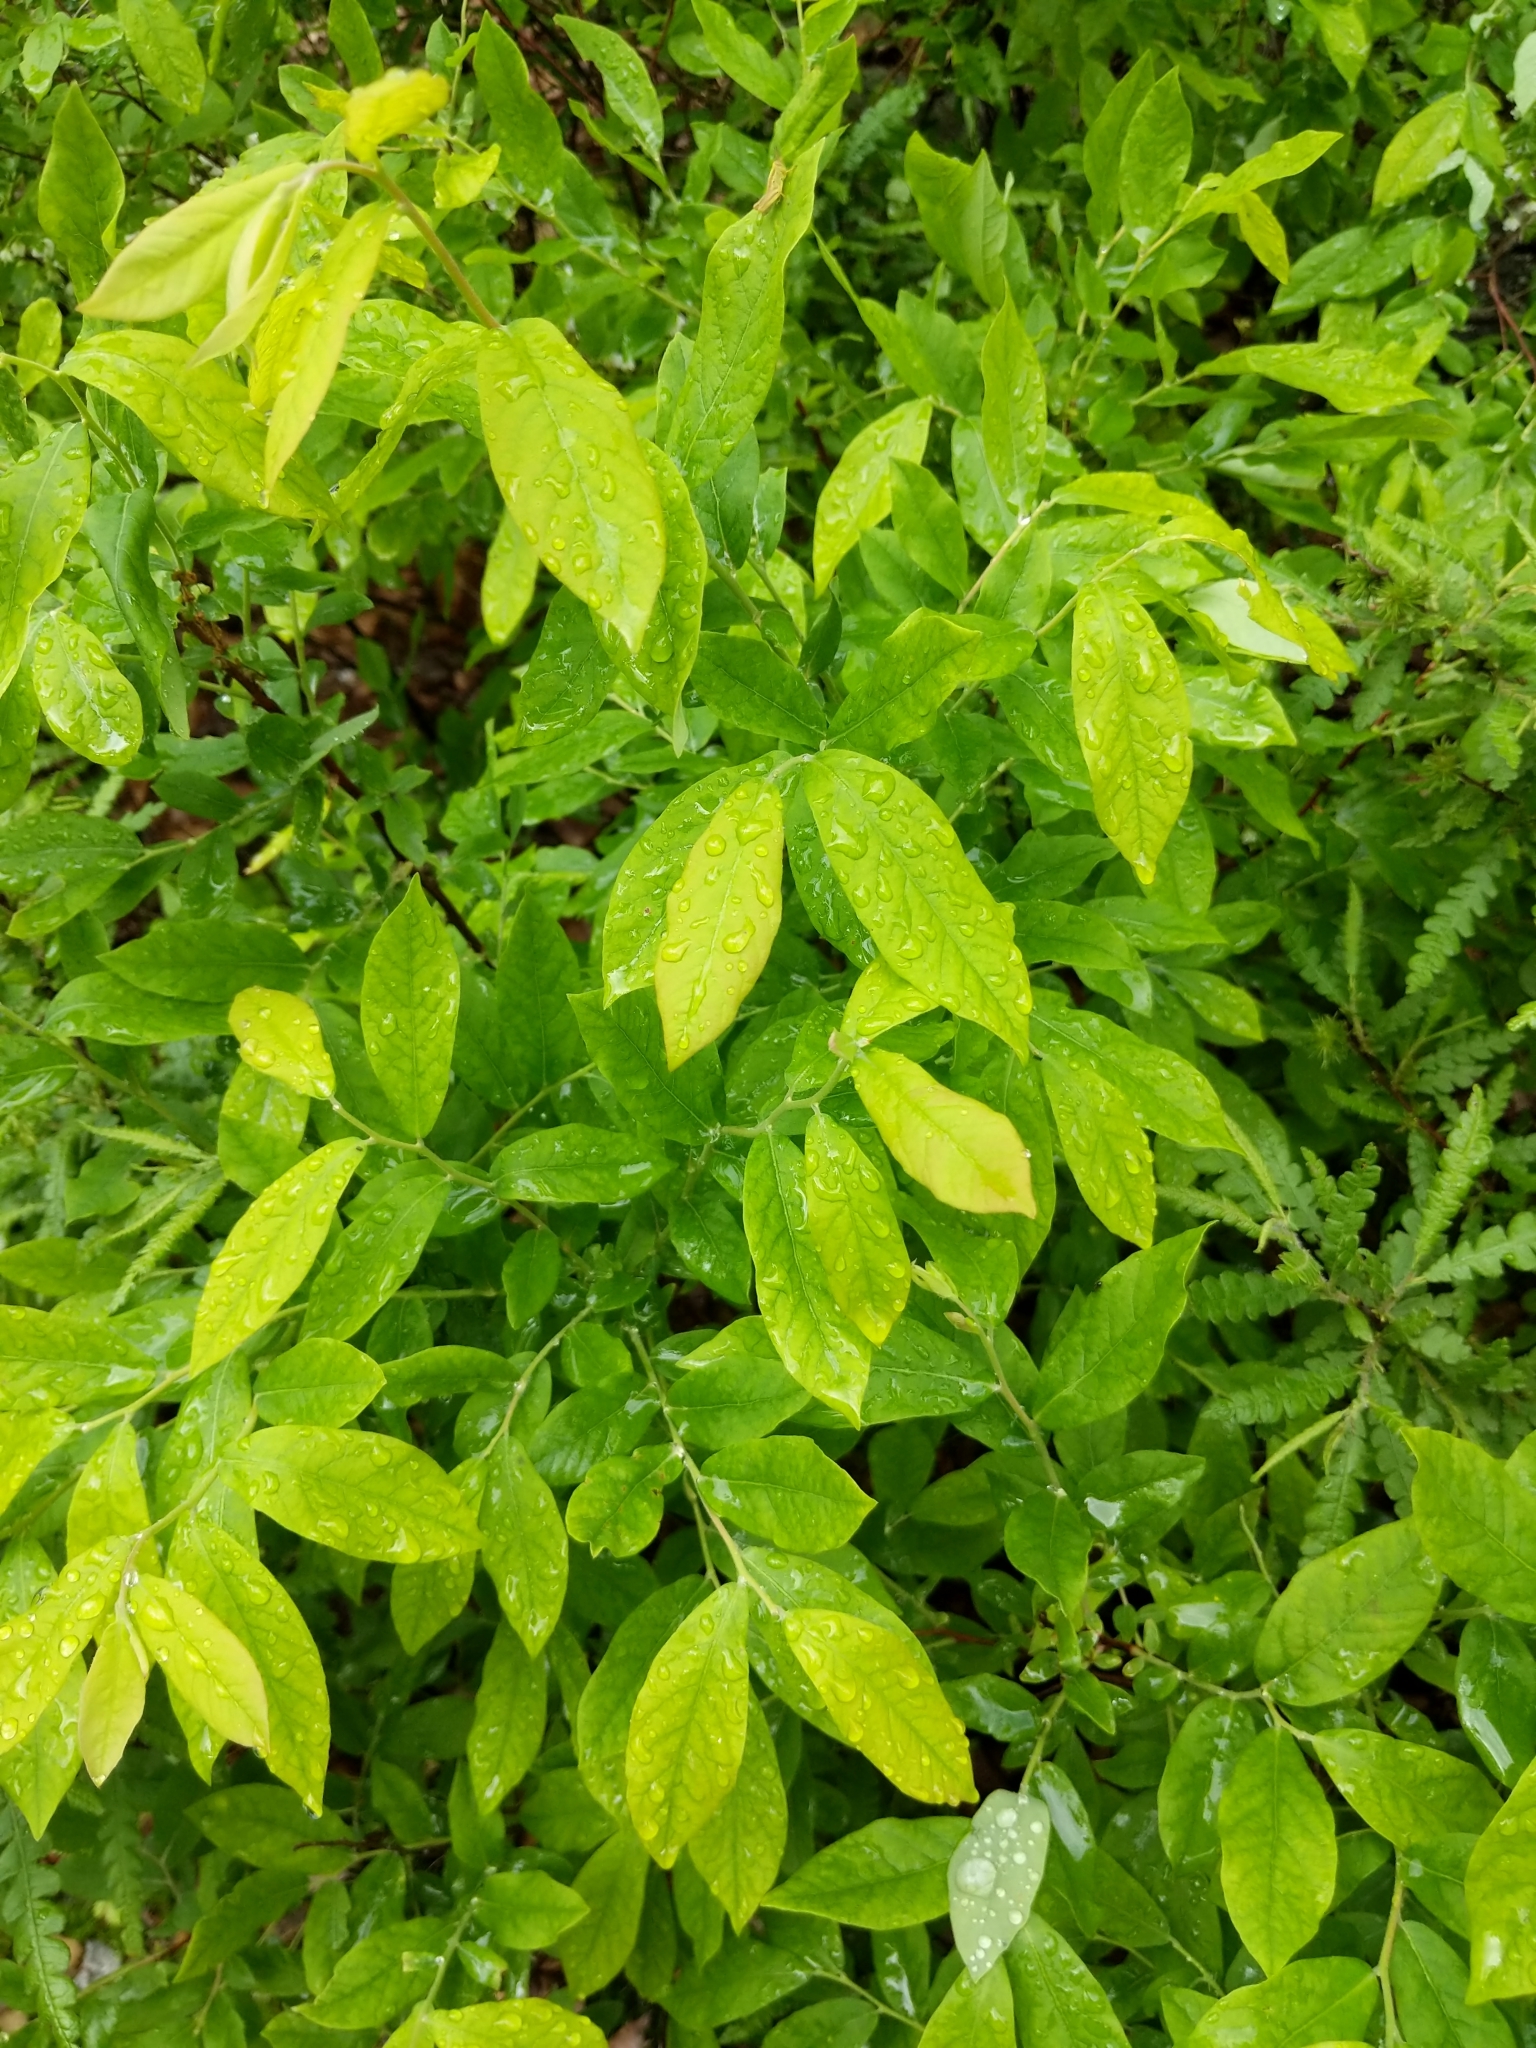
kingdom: Plantae
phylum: Tracheophyta
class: Magnoliopsida
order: Ericales
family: Ericaceae
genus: Vaccinium
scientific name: Vaccinium stamineum
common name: Deerberry
